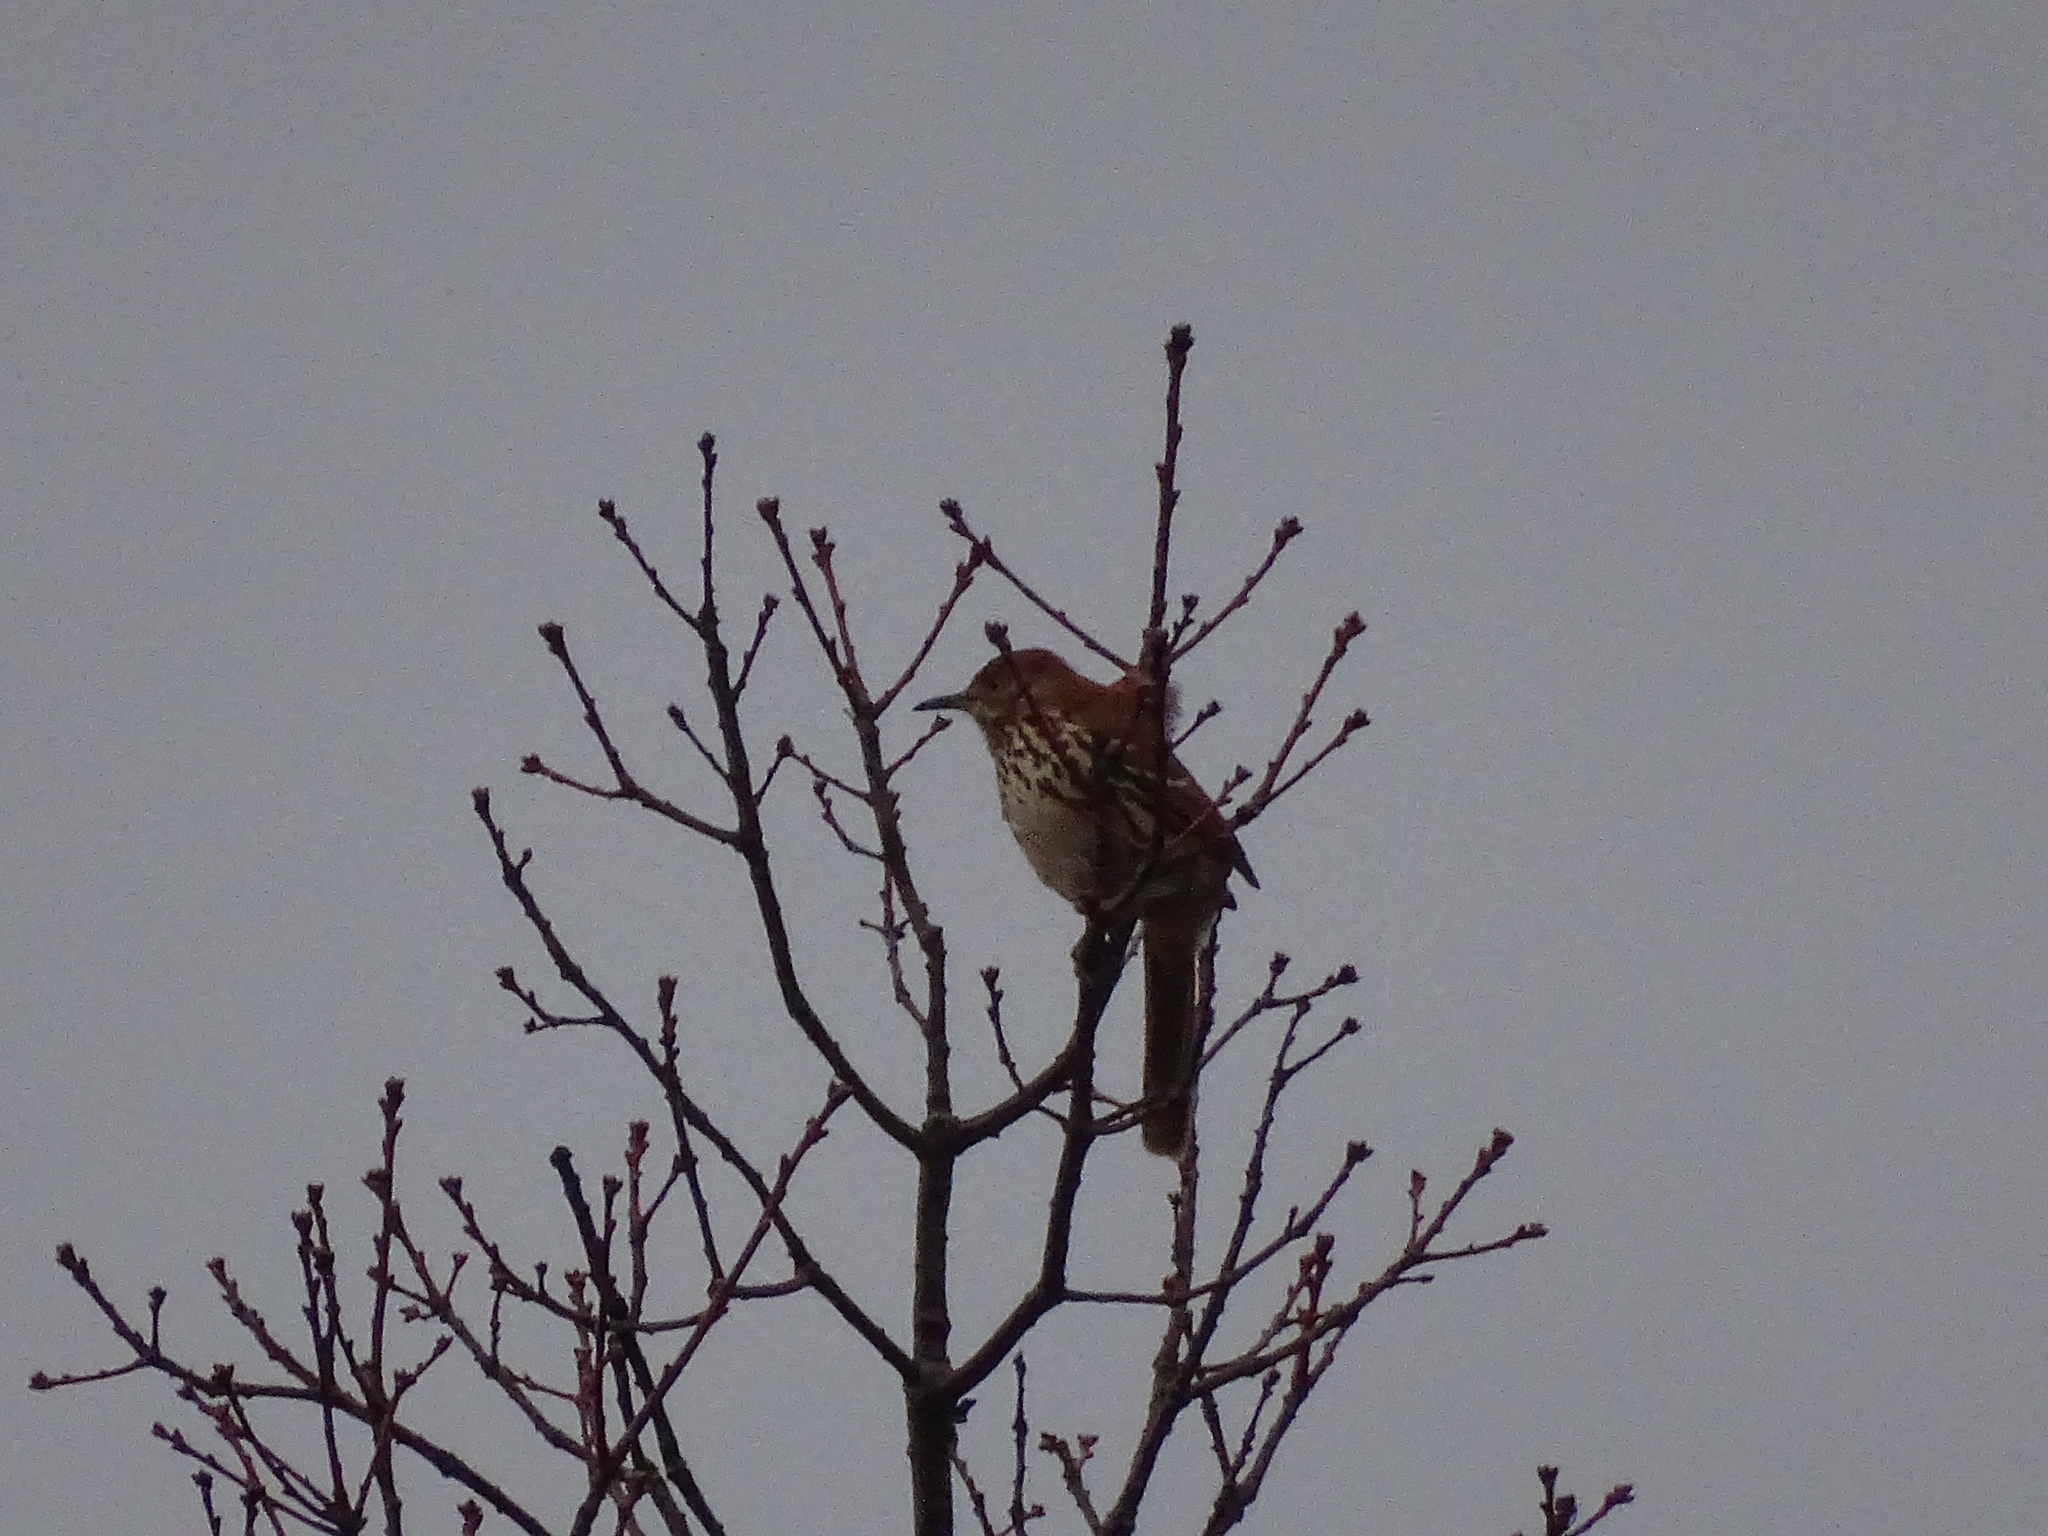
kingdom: Animalia
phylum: Chordata
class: Aves
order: Passeriformes
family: Mimidae
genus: Toxostoma
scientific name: Toxostoma rufum
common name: Brown thrasher
